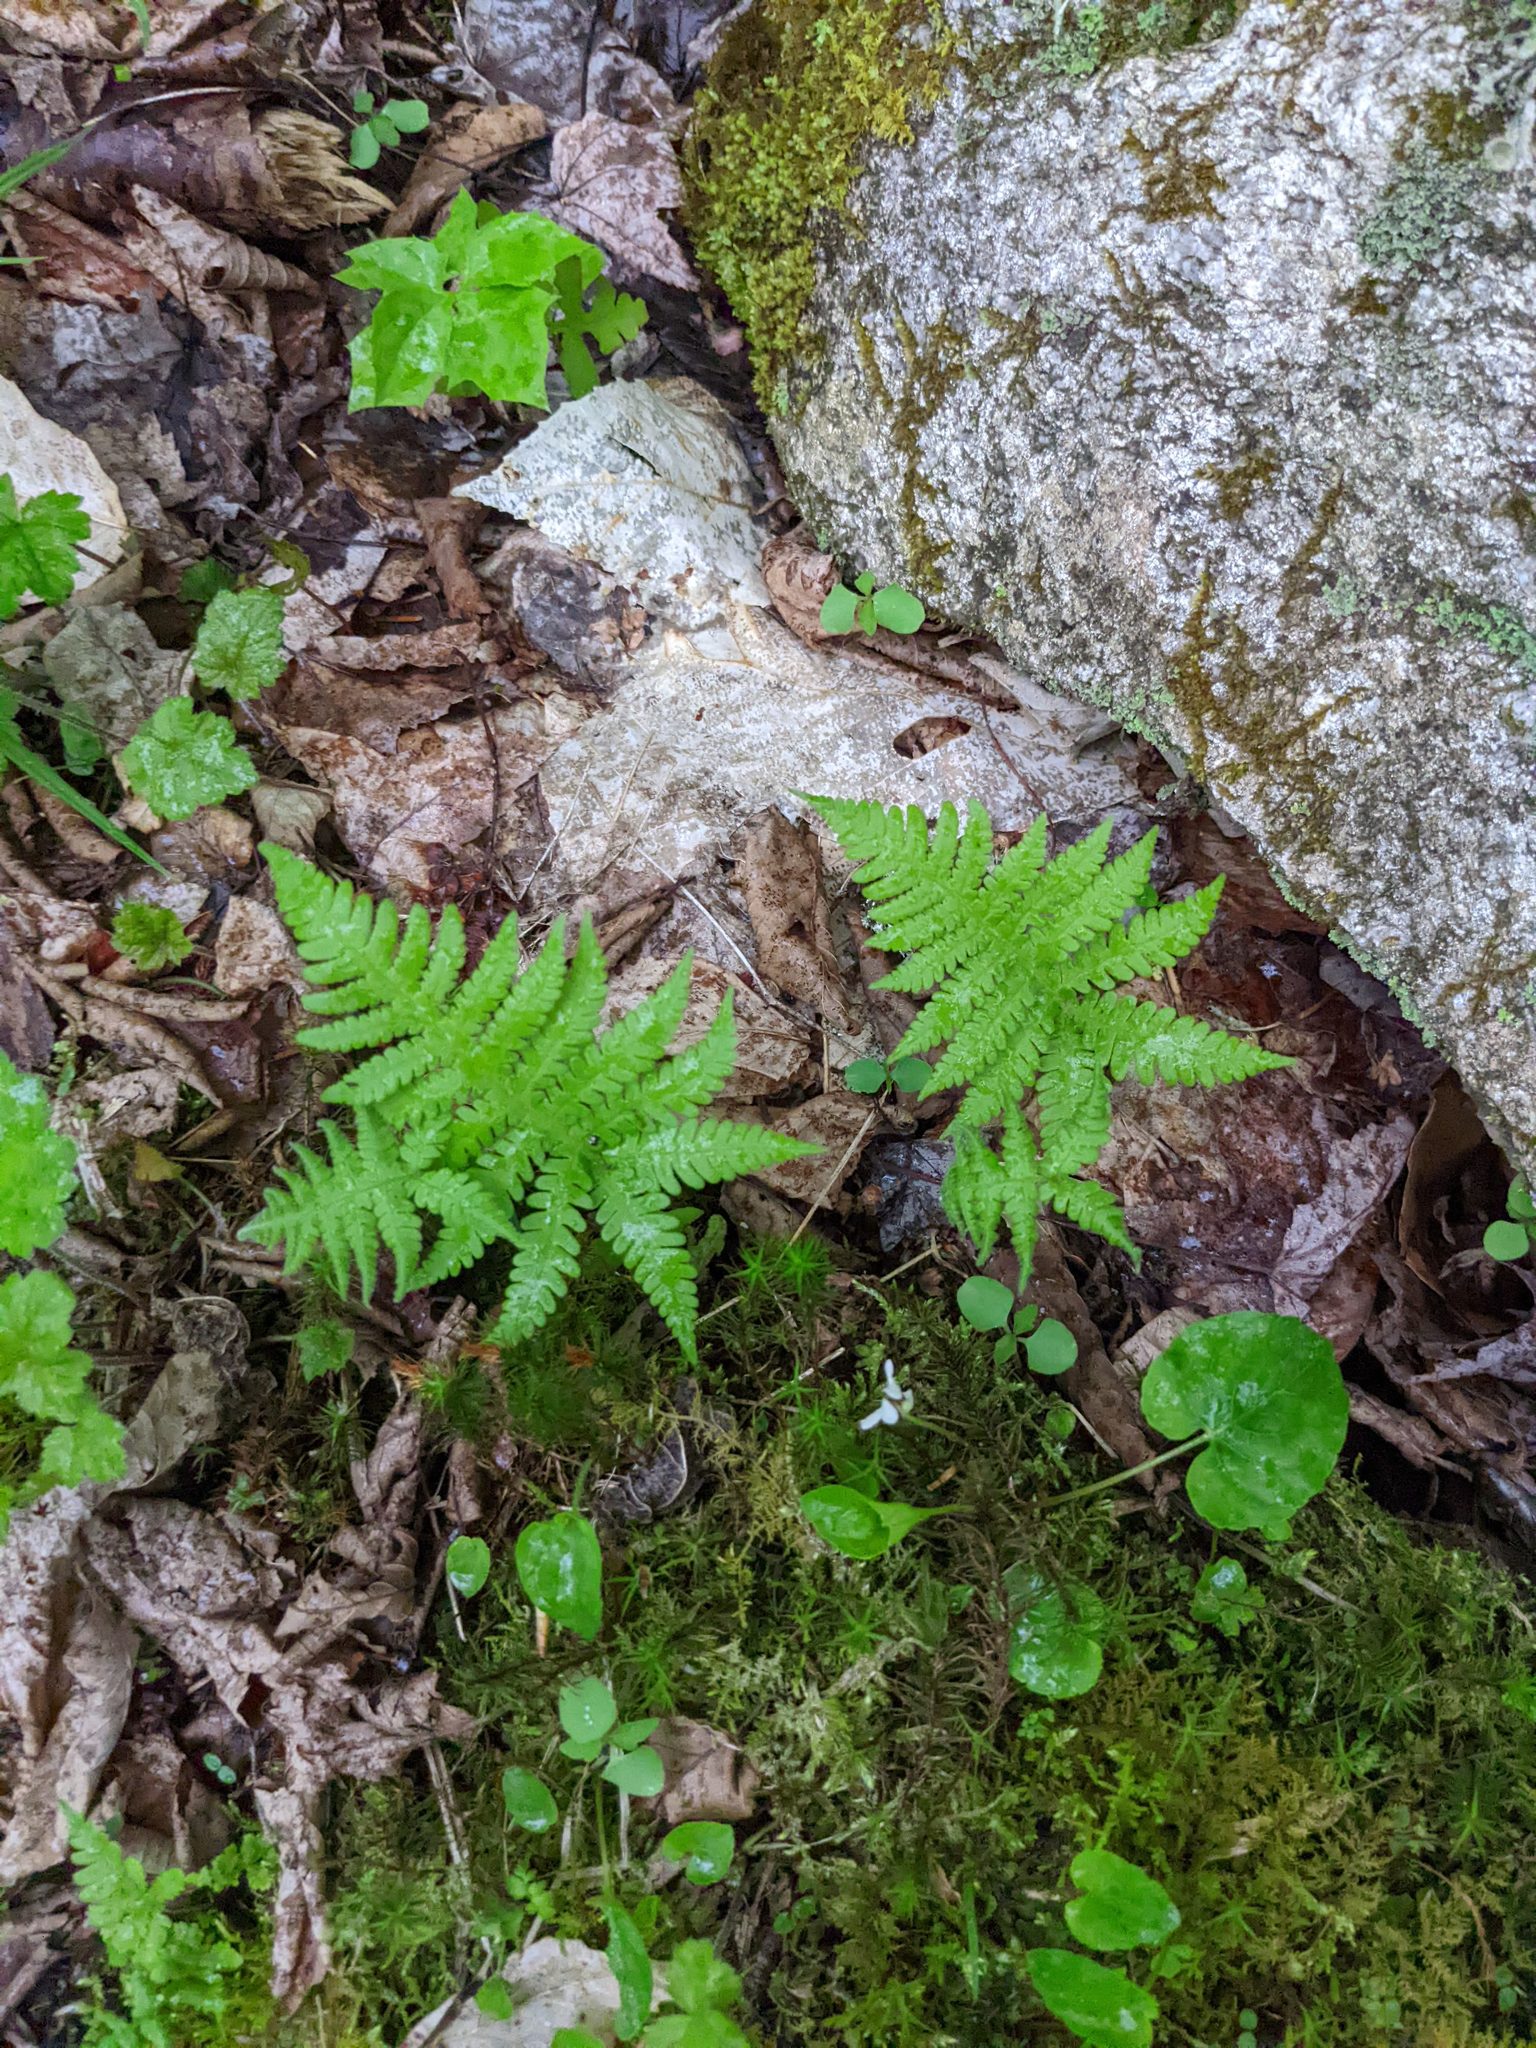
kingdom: Plantae
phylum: Tracheophyta
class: Polypodiopsida
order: Polypodiales
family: Thelypteridaceae
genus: Phegopteris
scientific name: Phegopteris connectilis
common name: Beech fern
